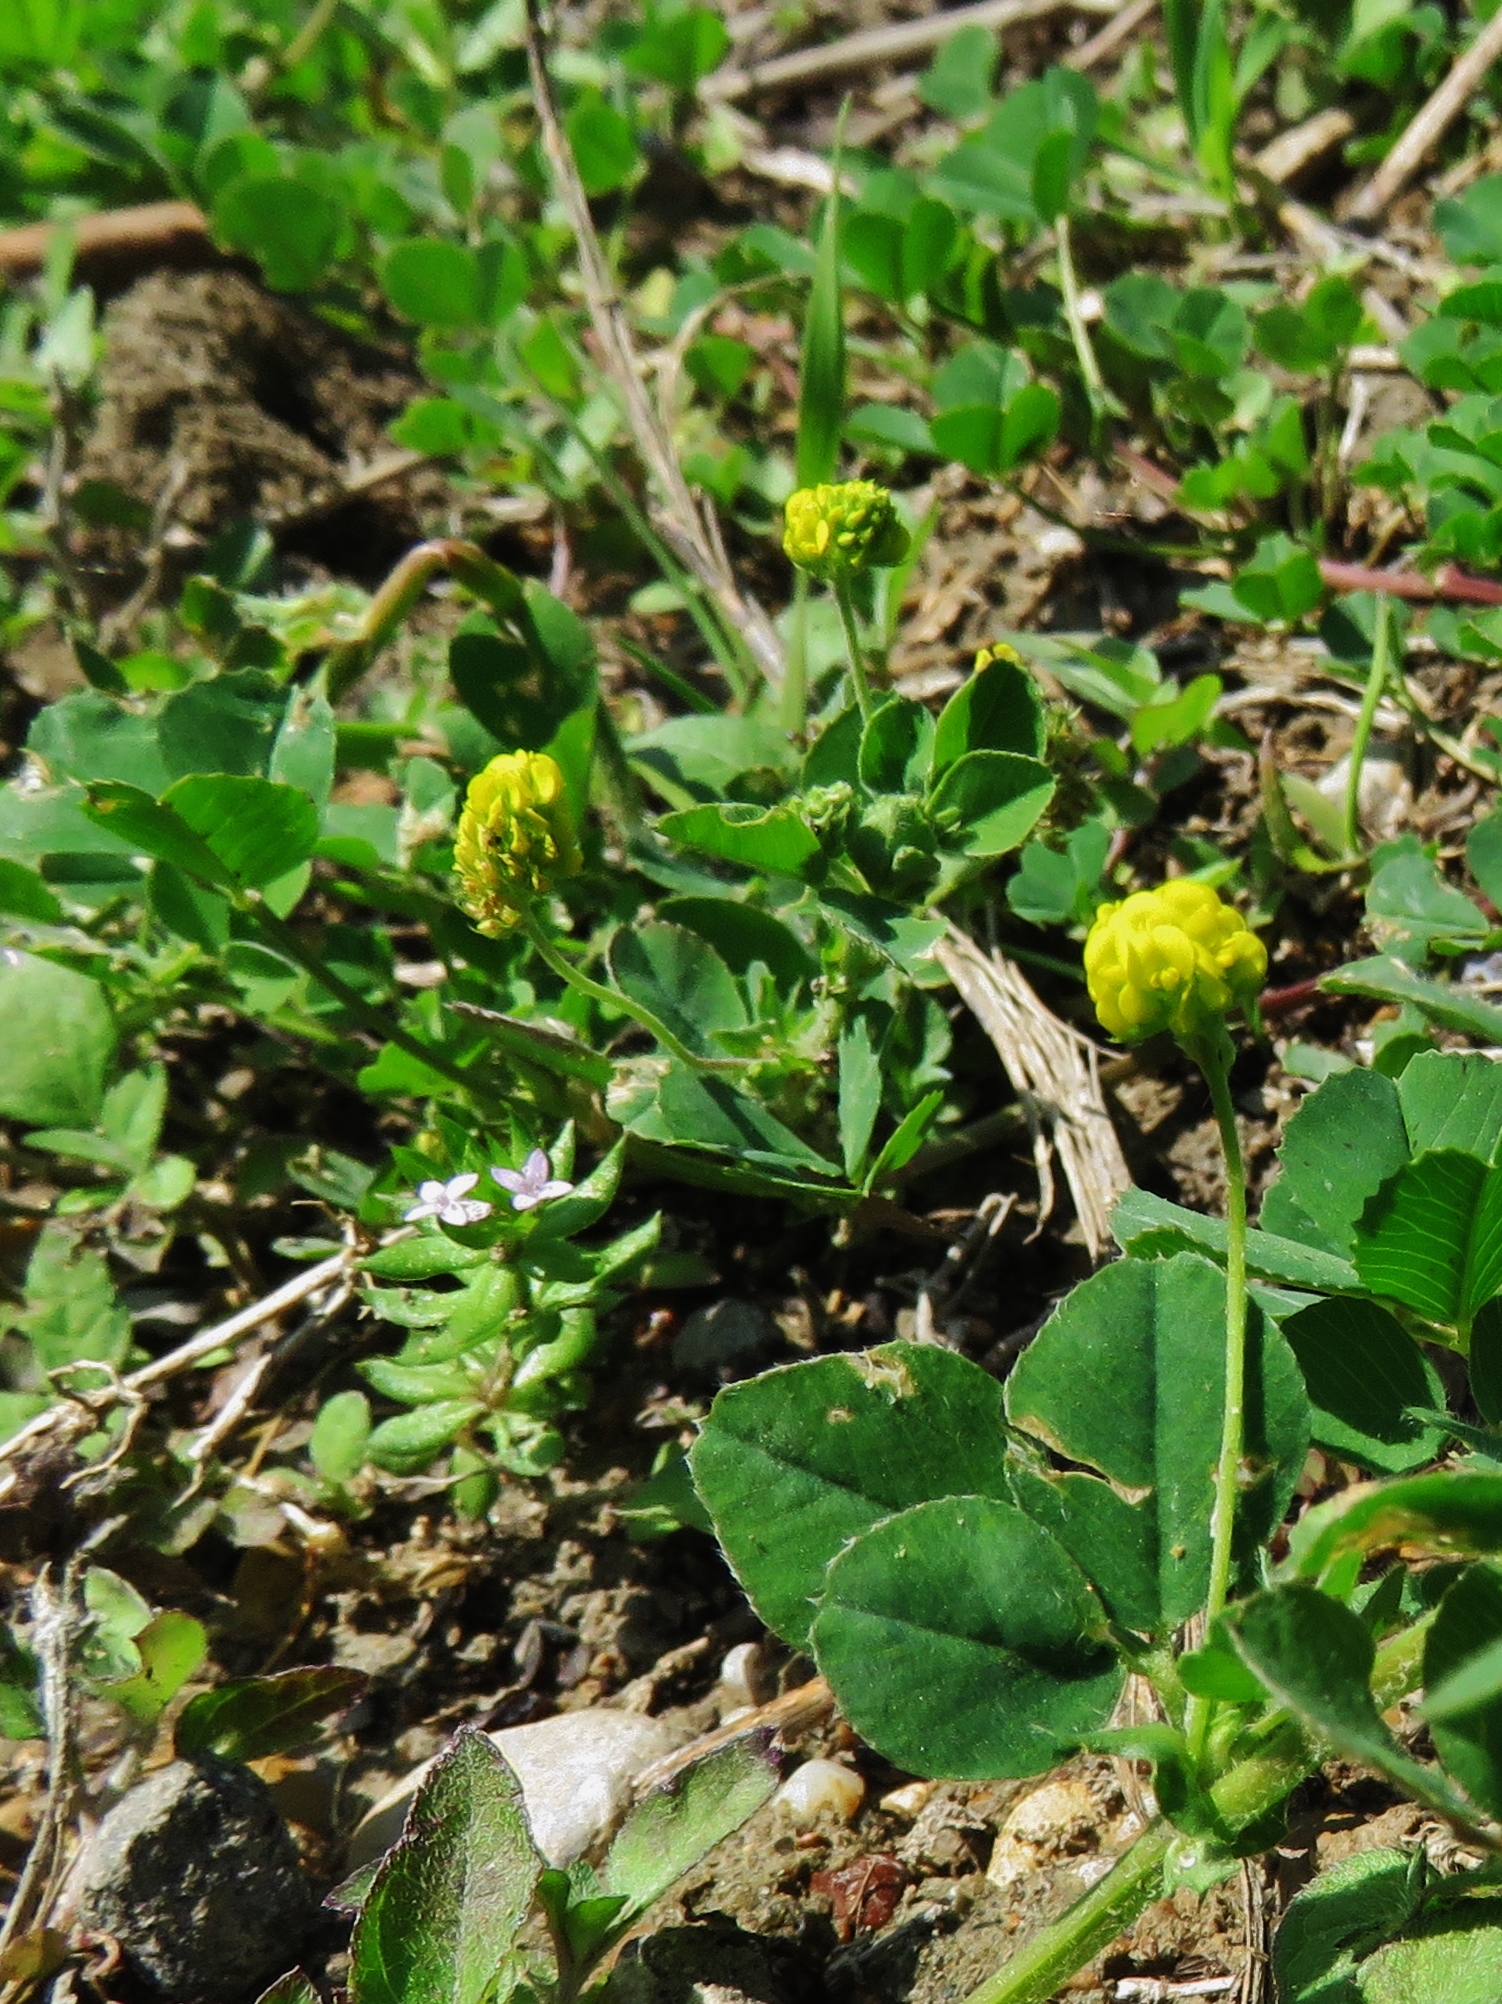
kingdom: Plantae
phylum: Tracheophyta
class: Magnoliopsida
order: Fabales
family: Fabaceae
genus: Medicago
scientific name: Medicago lupulina
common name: Black medick
